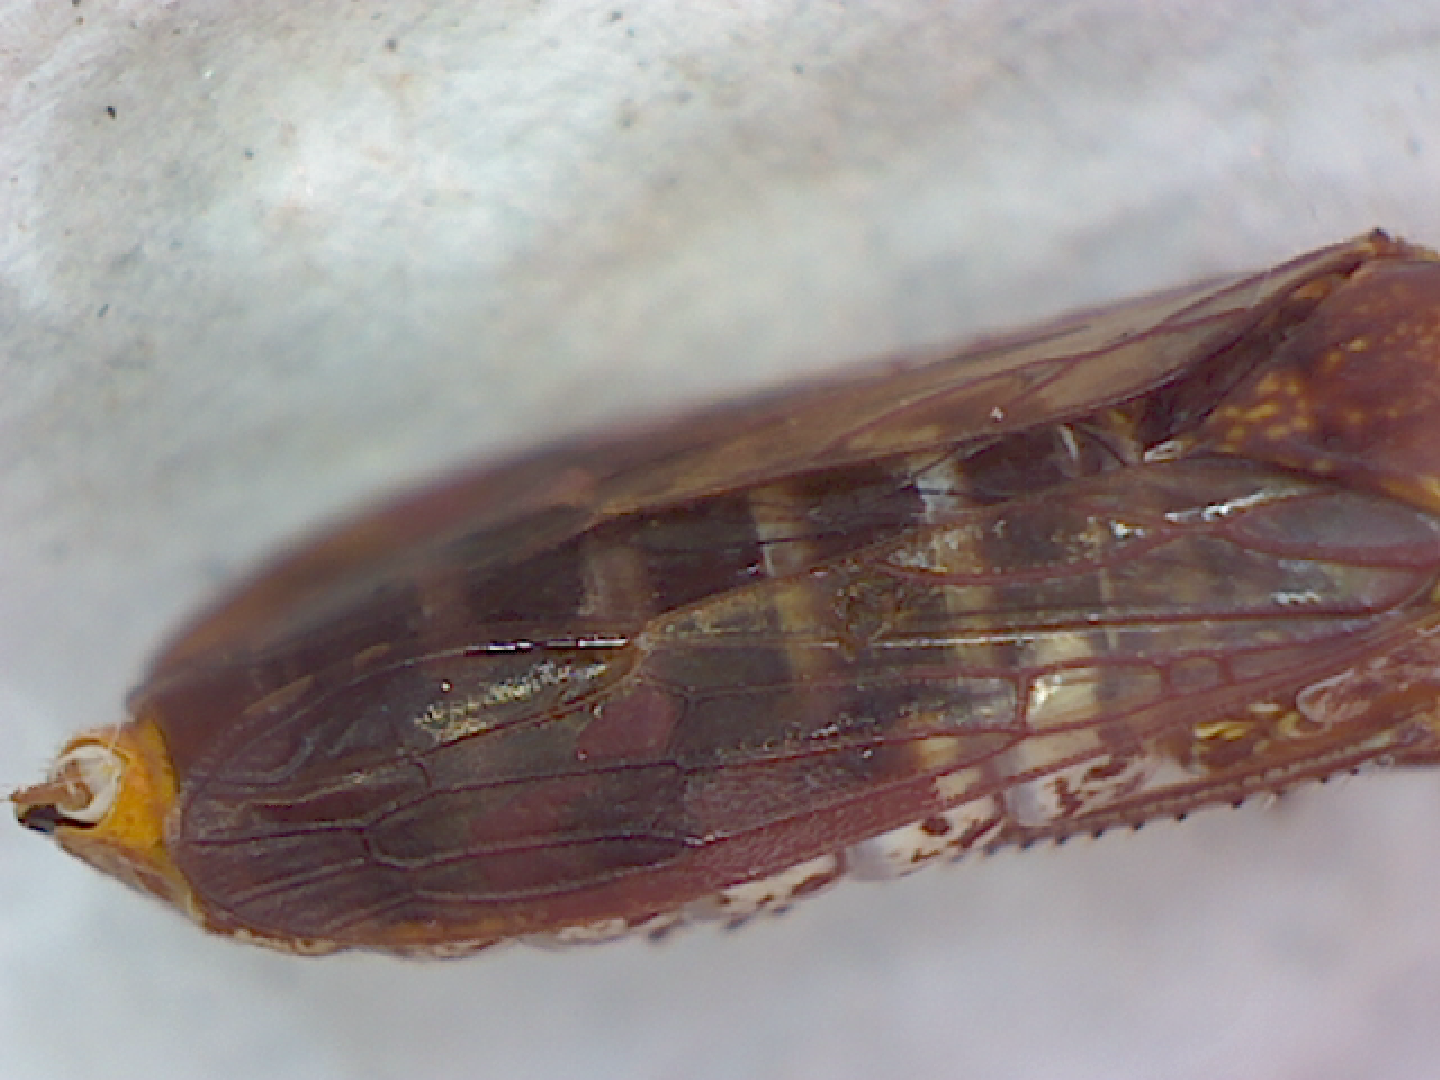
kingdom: Animalia
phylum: Arthropoda
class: Insecta
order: Hemiptera
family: Cicadellidae
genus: Homalodisca
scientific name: Homalodisca vitripennis
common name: Glassy-winged sharpshooter
